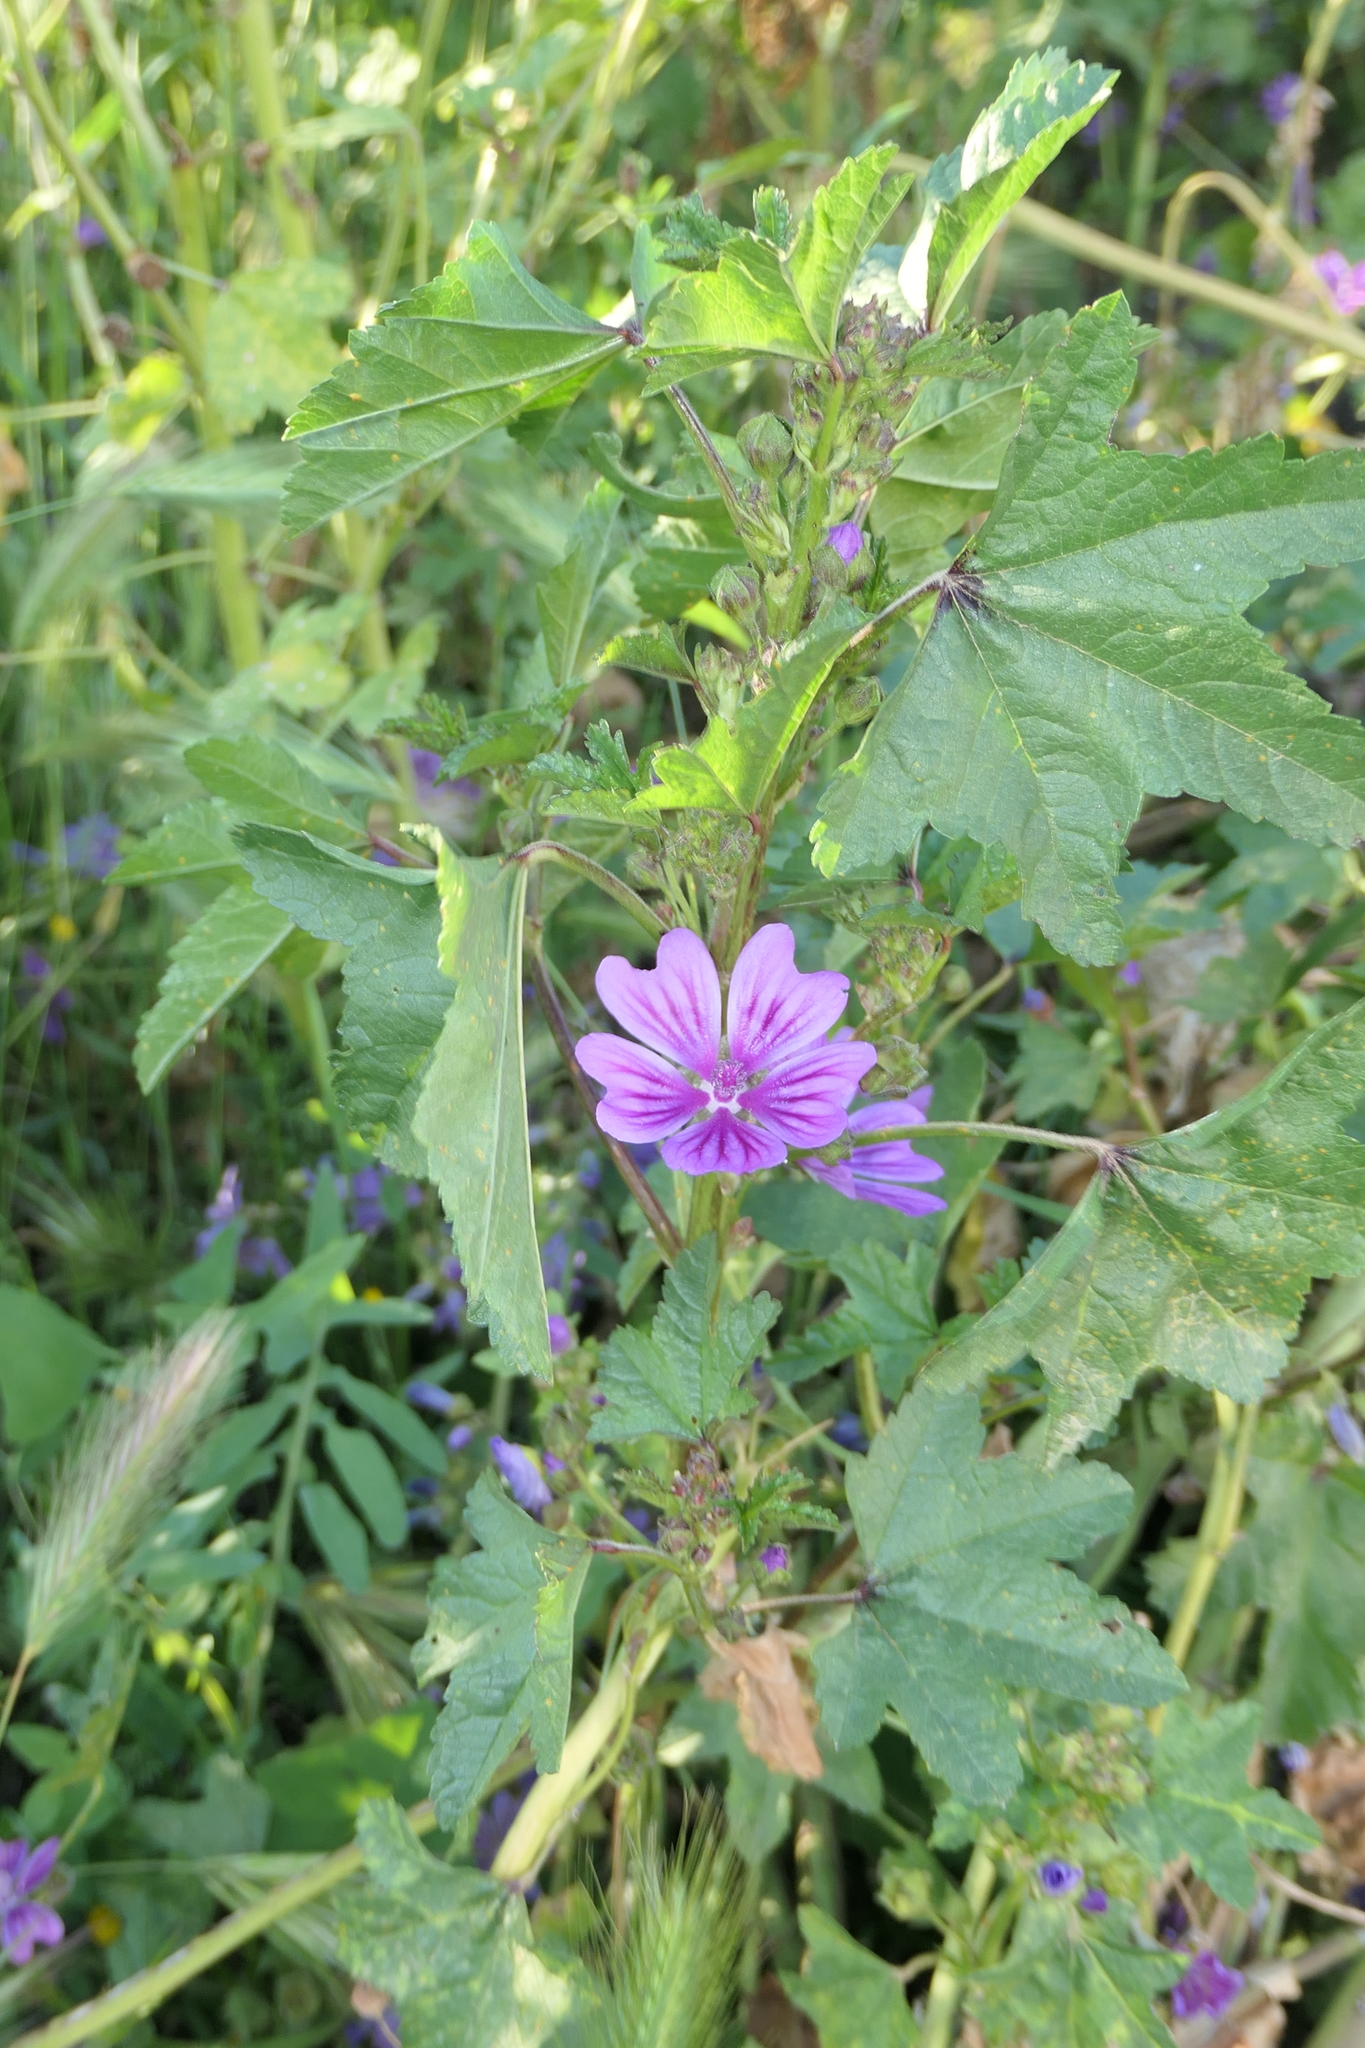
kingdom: Plantae
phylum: Tracheophyta
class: Magnoliopsida
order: Malvales
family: Malvaceae
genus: Malva
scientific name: Malva sylvestris
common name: Common mallow
